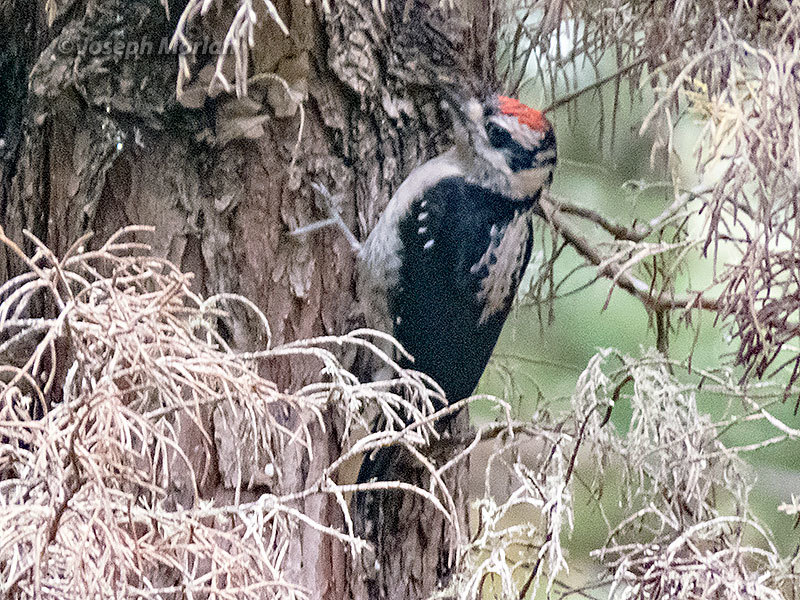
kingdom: Animalia
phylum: Chordata
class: Aves
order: Piciformes
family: Picidae
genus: Leuconotopicus
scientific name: Leuconotopicus villosus
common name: Hairy woodpecker
